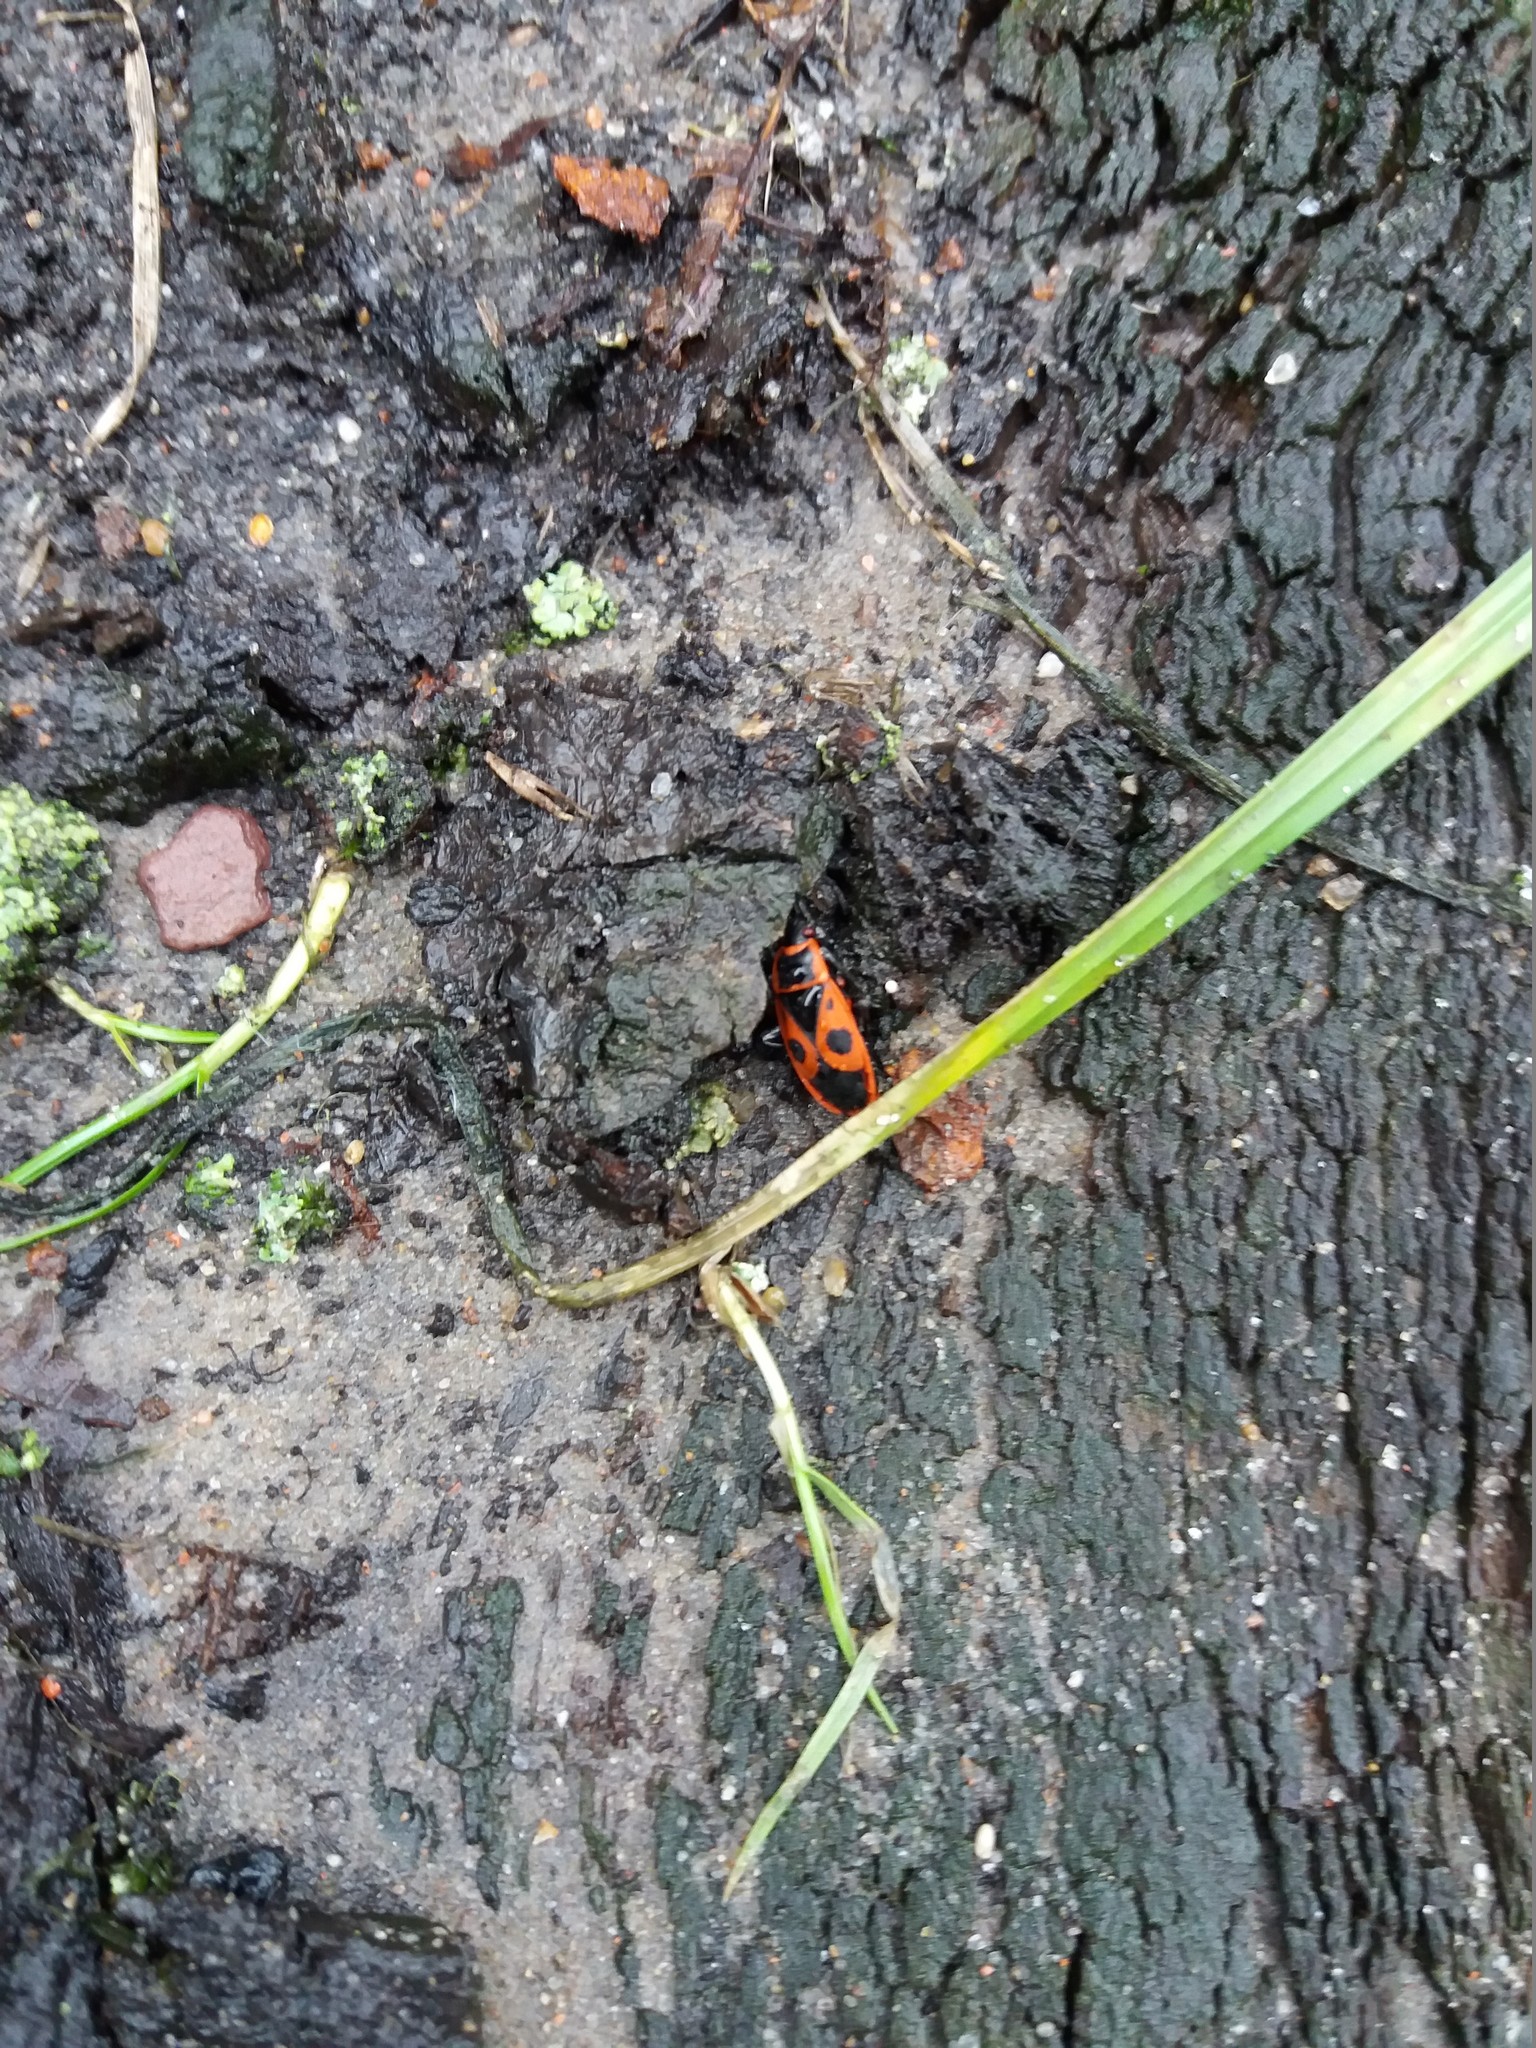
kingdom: Animalia
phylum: Arthropoda
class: Insecta
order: Hemiptera
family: Pyrrhocoridae
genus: Pyrrhocoris
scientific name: Pyrrhocoris apterus
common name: Firebug
